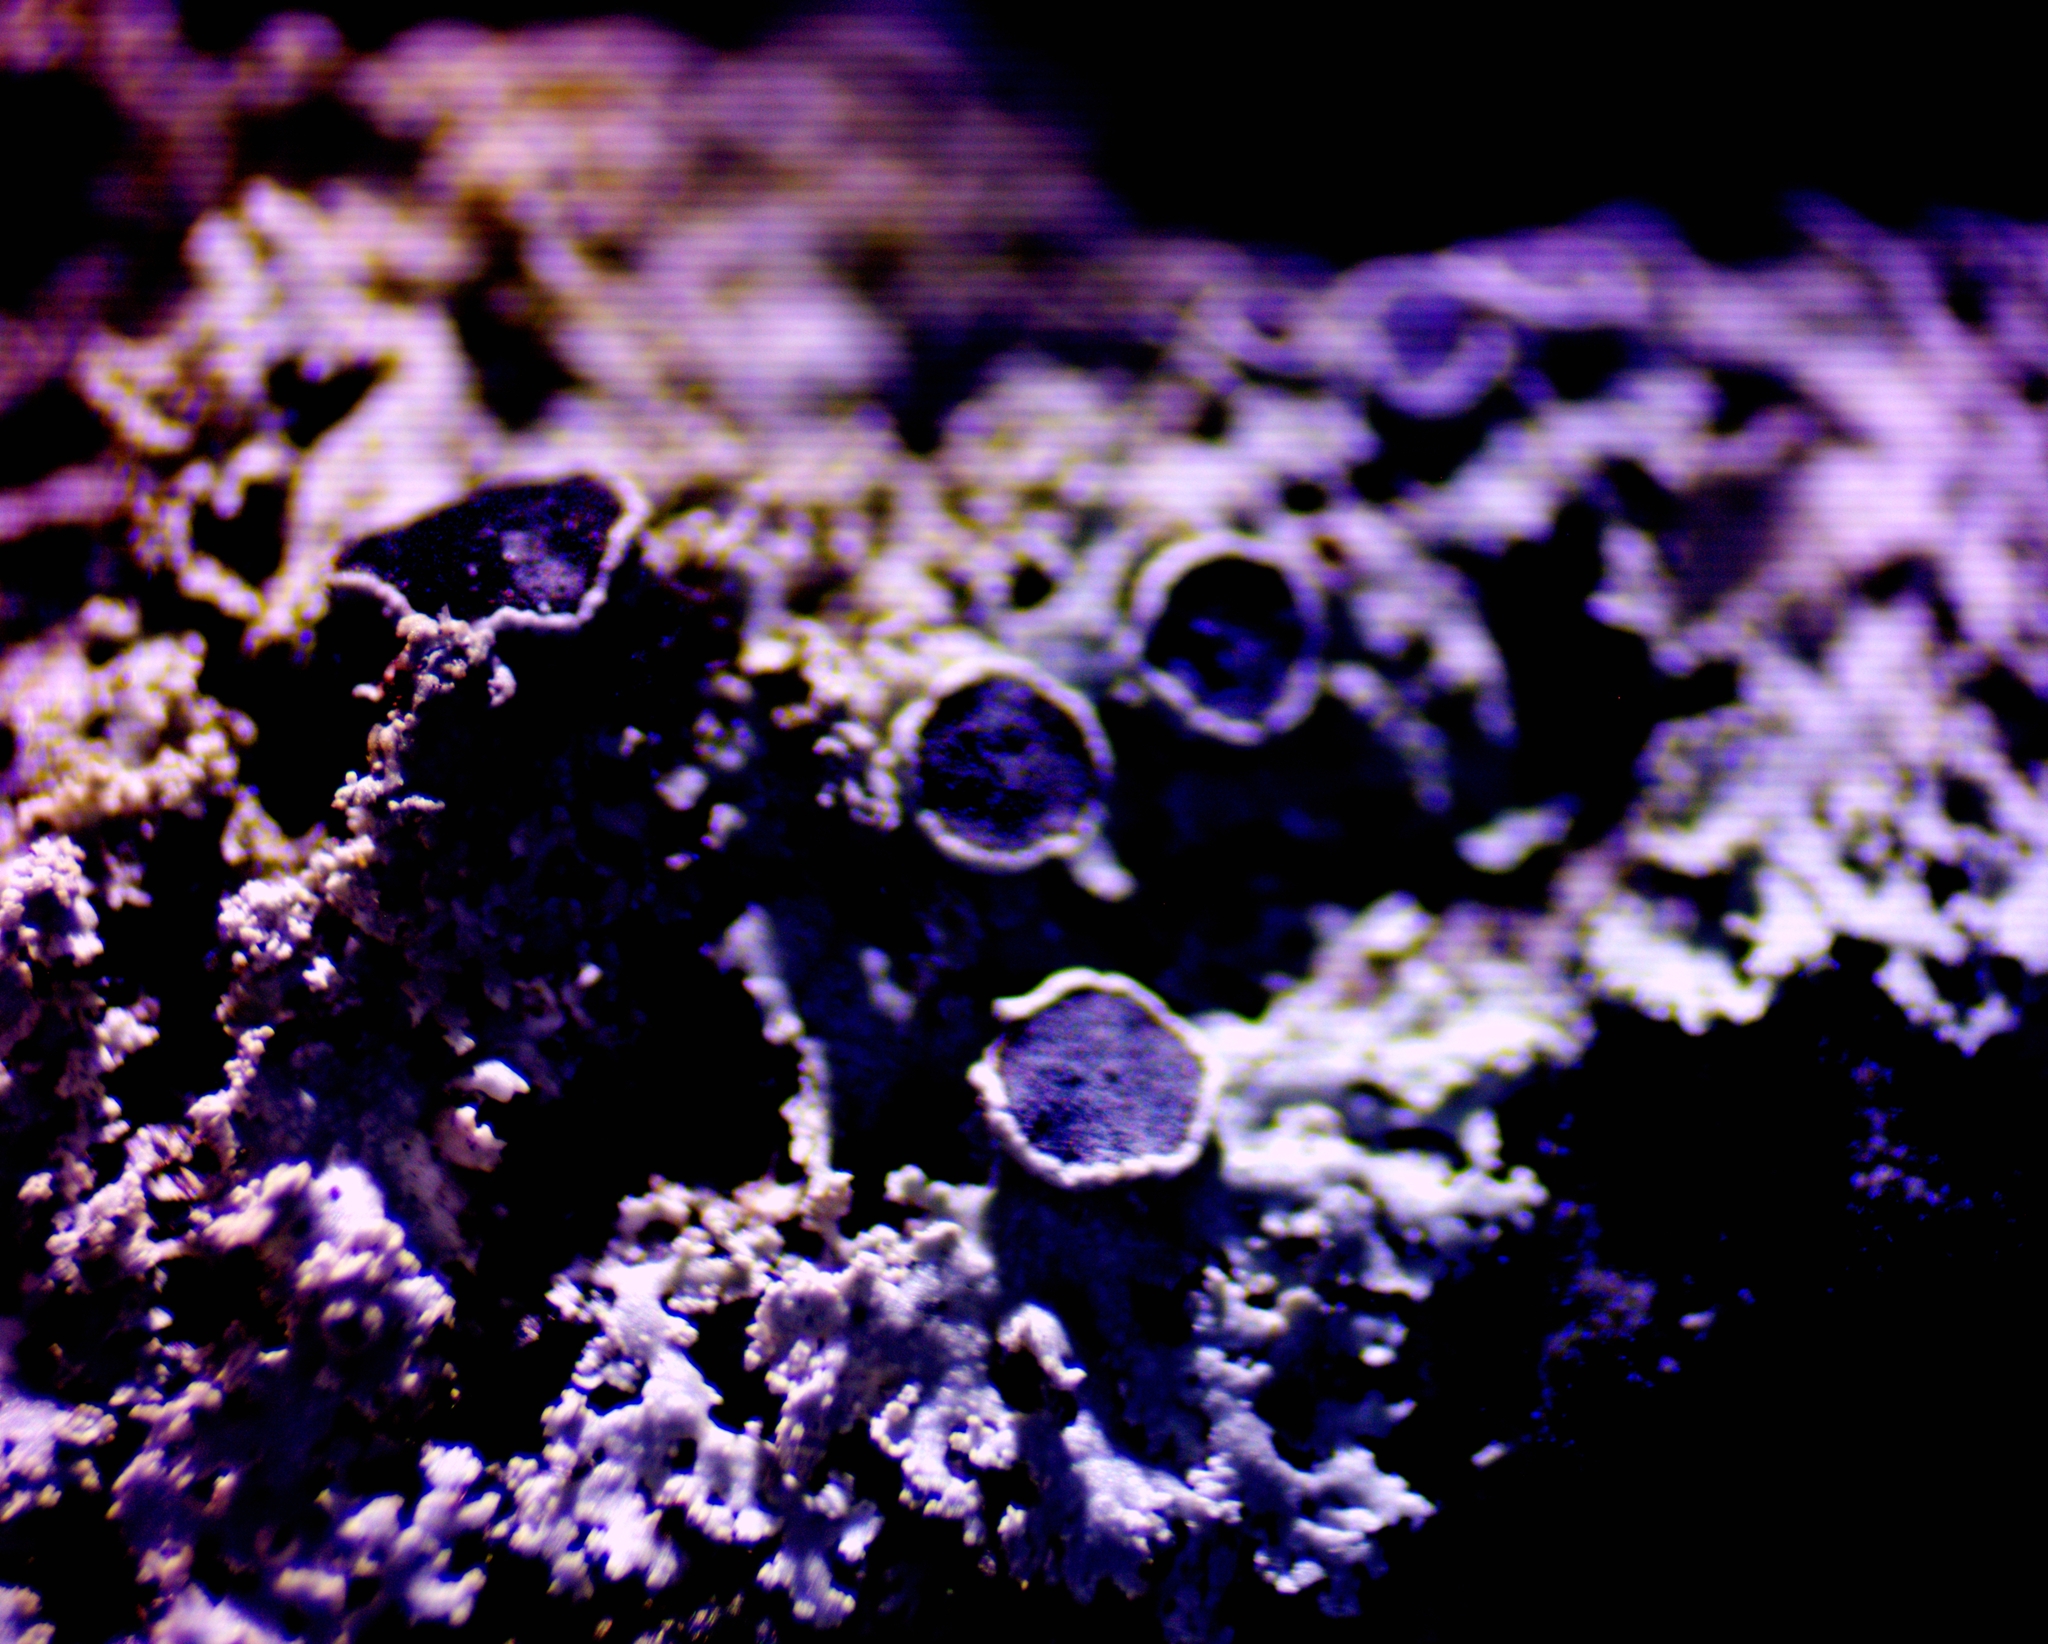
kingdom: Fungi
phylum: Ascomycota
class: Lecanoromycetes
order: Caliciales
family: Physciaceae
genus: Physcia
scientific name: Physcia millegrana
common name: Rosette lichen
